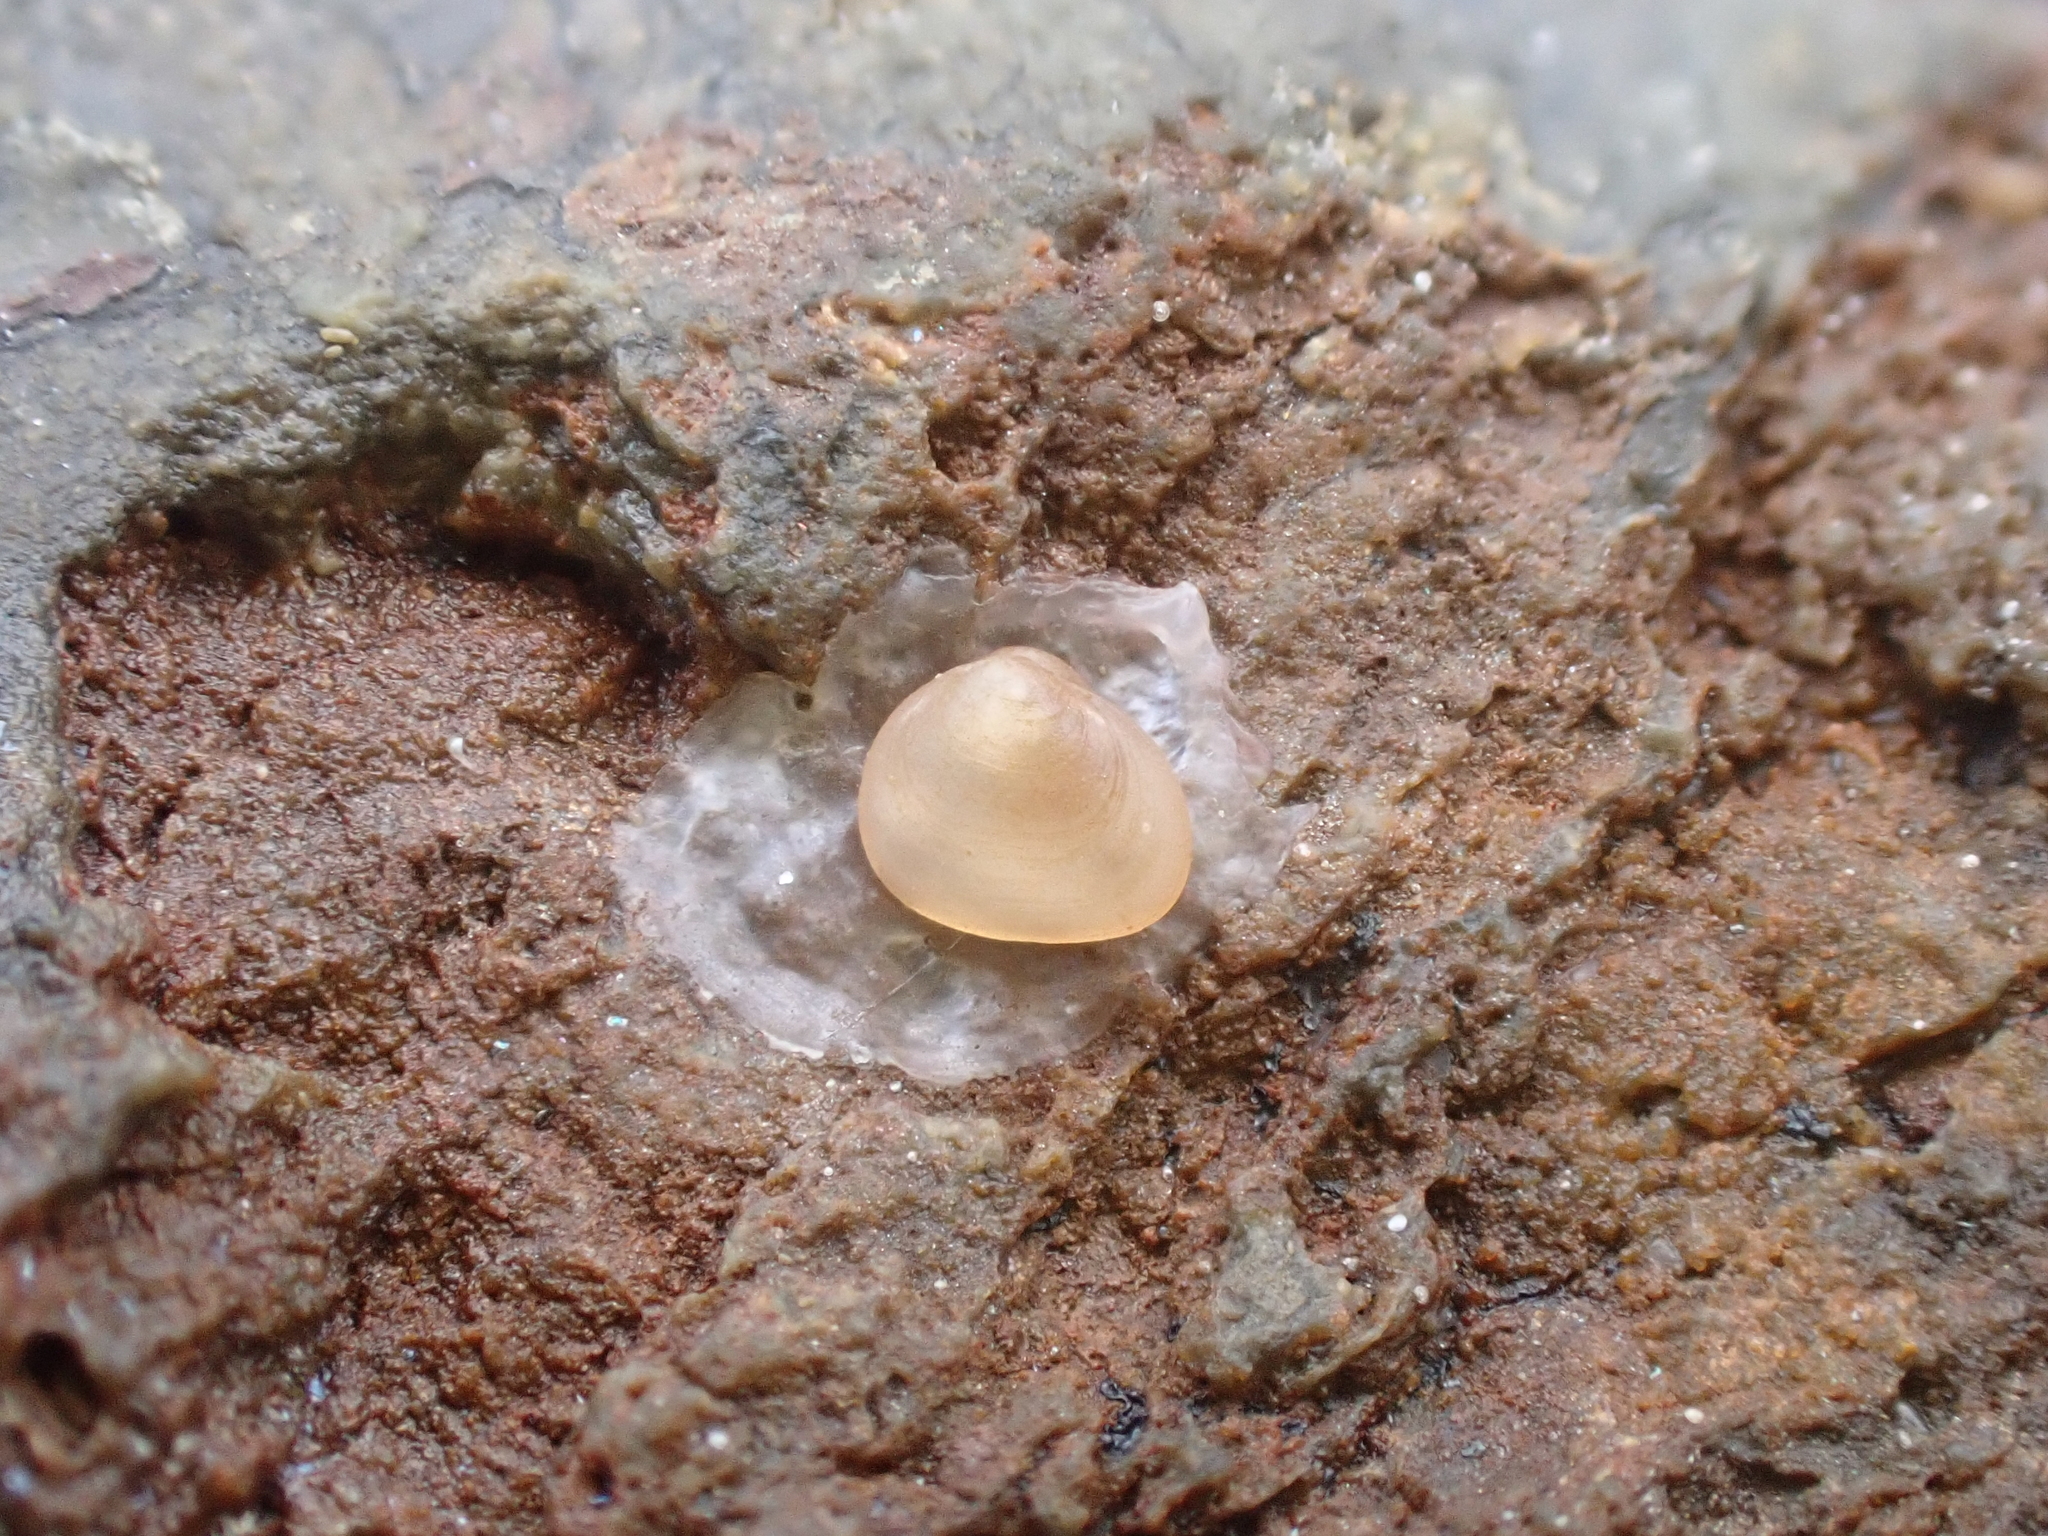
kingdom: Animalia
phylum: Mollusca
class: Bivalvia
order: Galeommatida
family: Lasaeidae
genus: Lasaea
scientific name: Lasaea maoria
